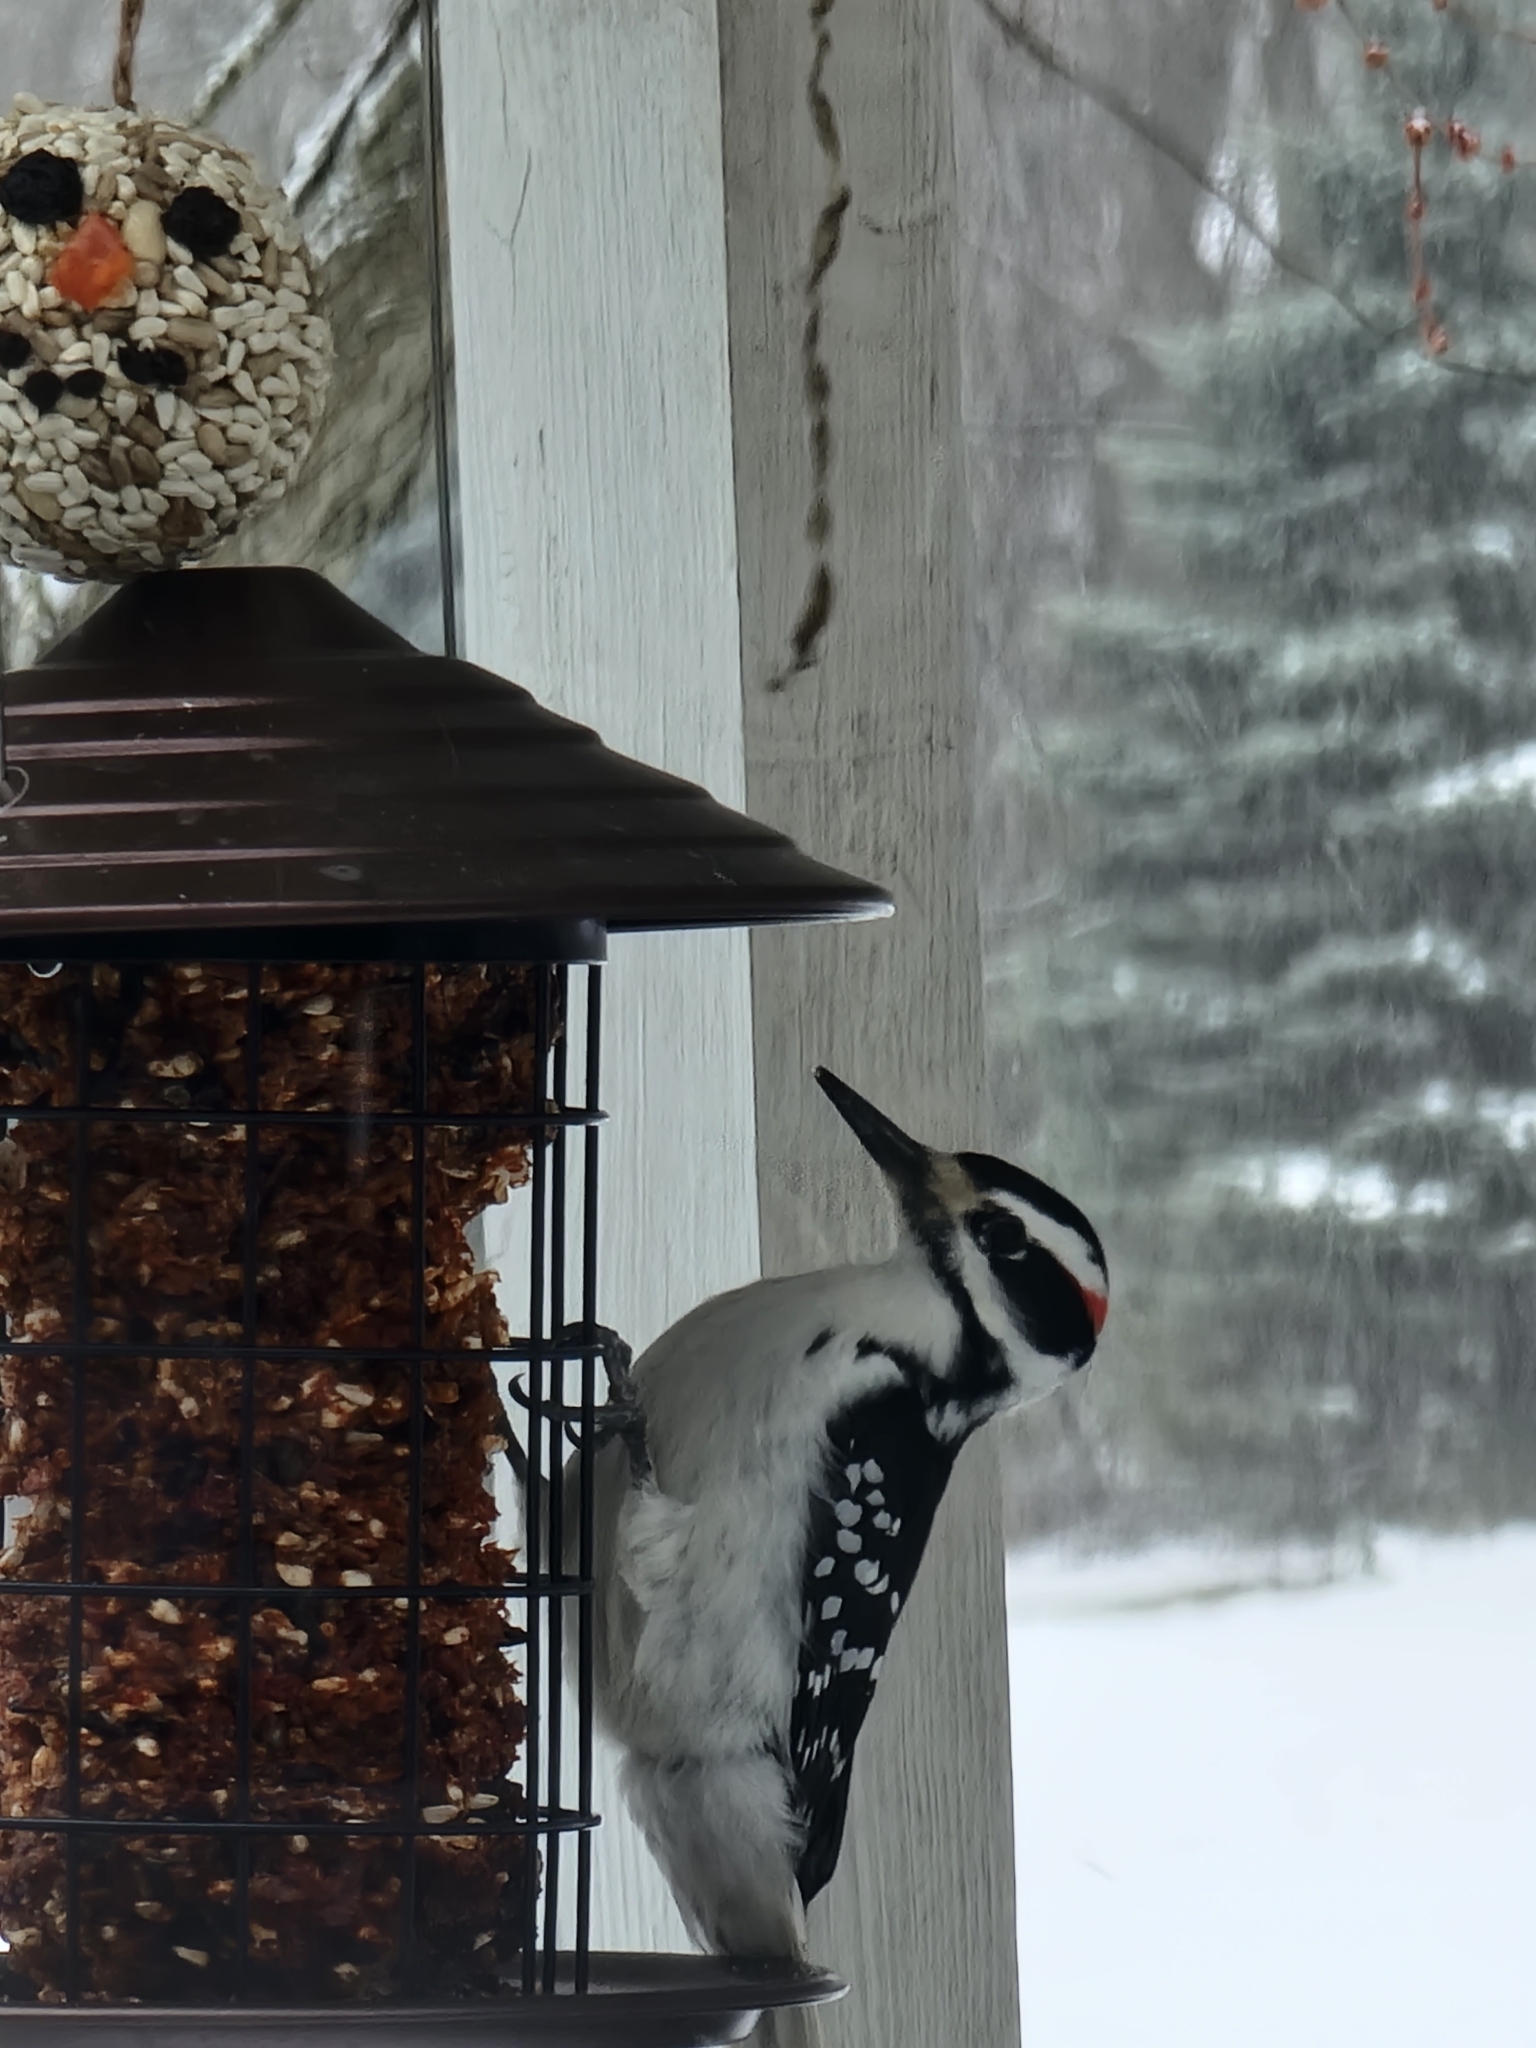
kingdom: Animalia
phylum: Chordata
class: Aves
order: Piciformes
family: Picidae
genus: Leuconotopicus
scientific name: Leuconotopicus villosus
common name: Hairy woodpecker
